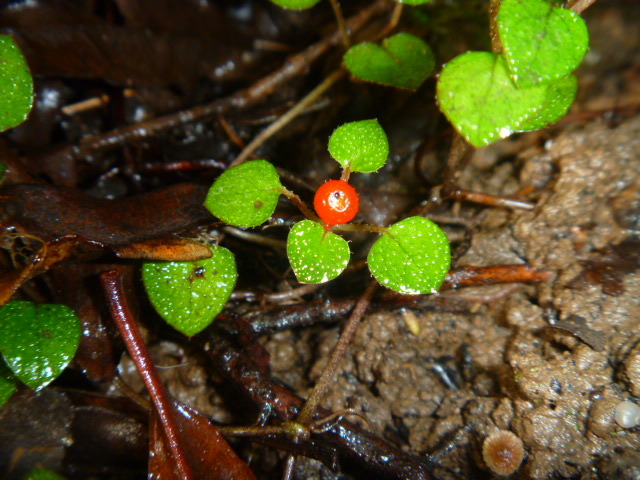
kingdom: Plantae
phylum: Tracheophyta
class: Magnoliopsida
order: Gentianales
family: Rubiaceae
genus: Nertera
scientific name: Nertera dichondrifolia
